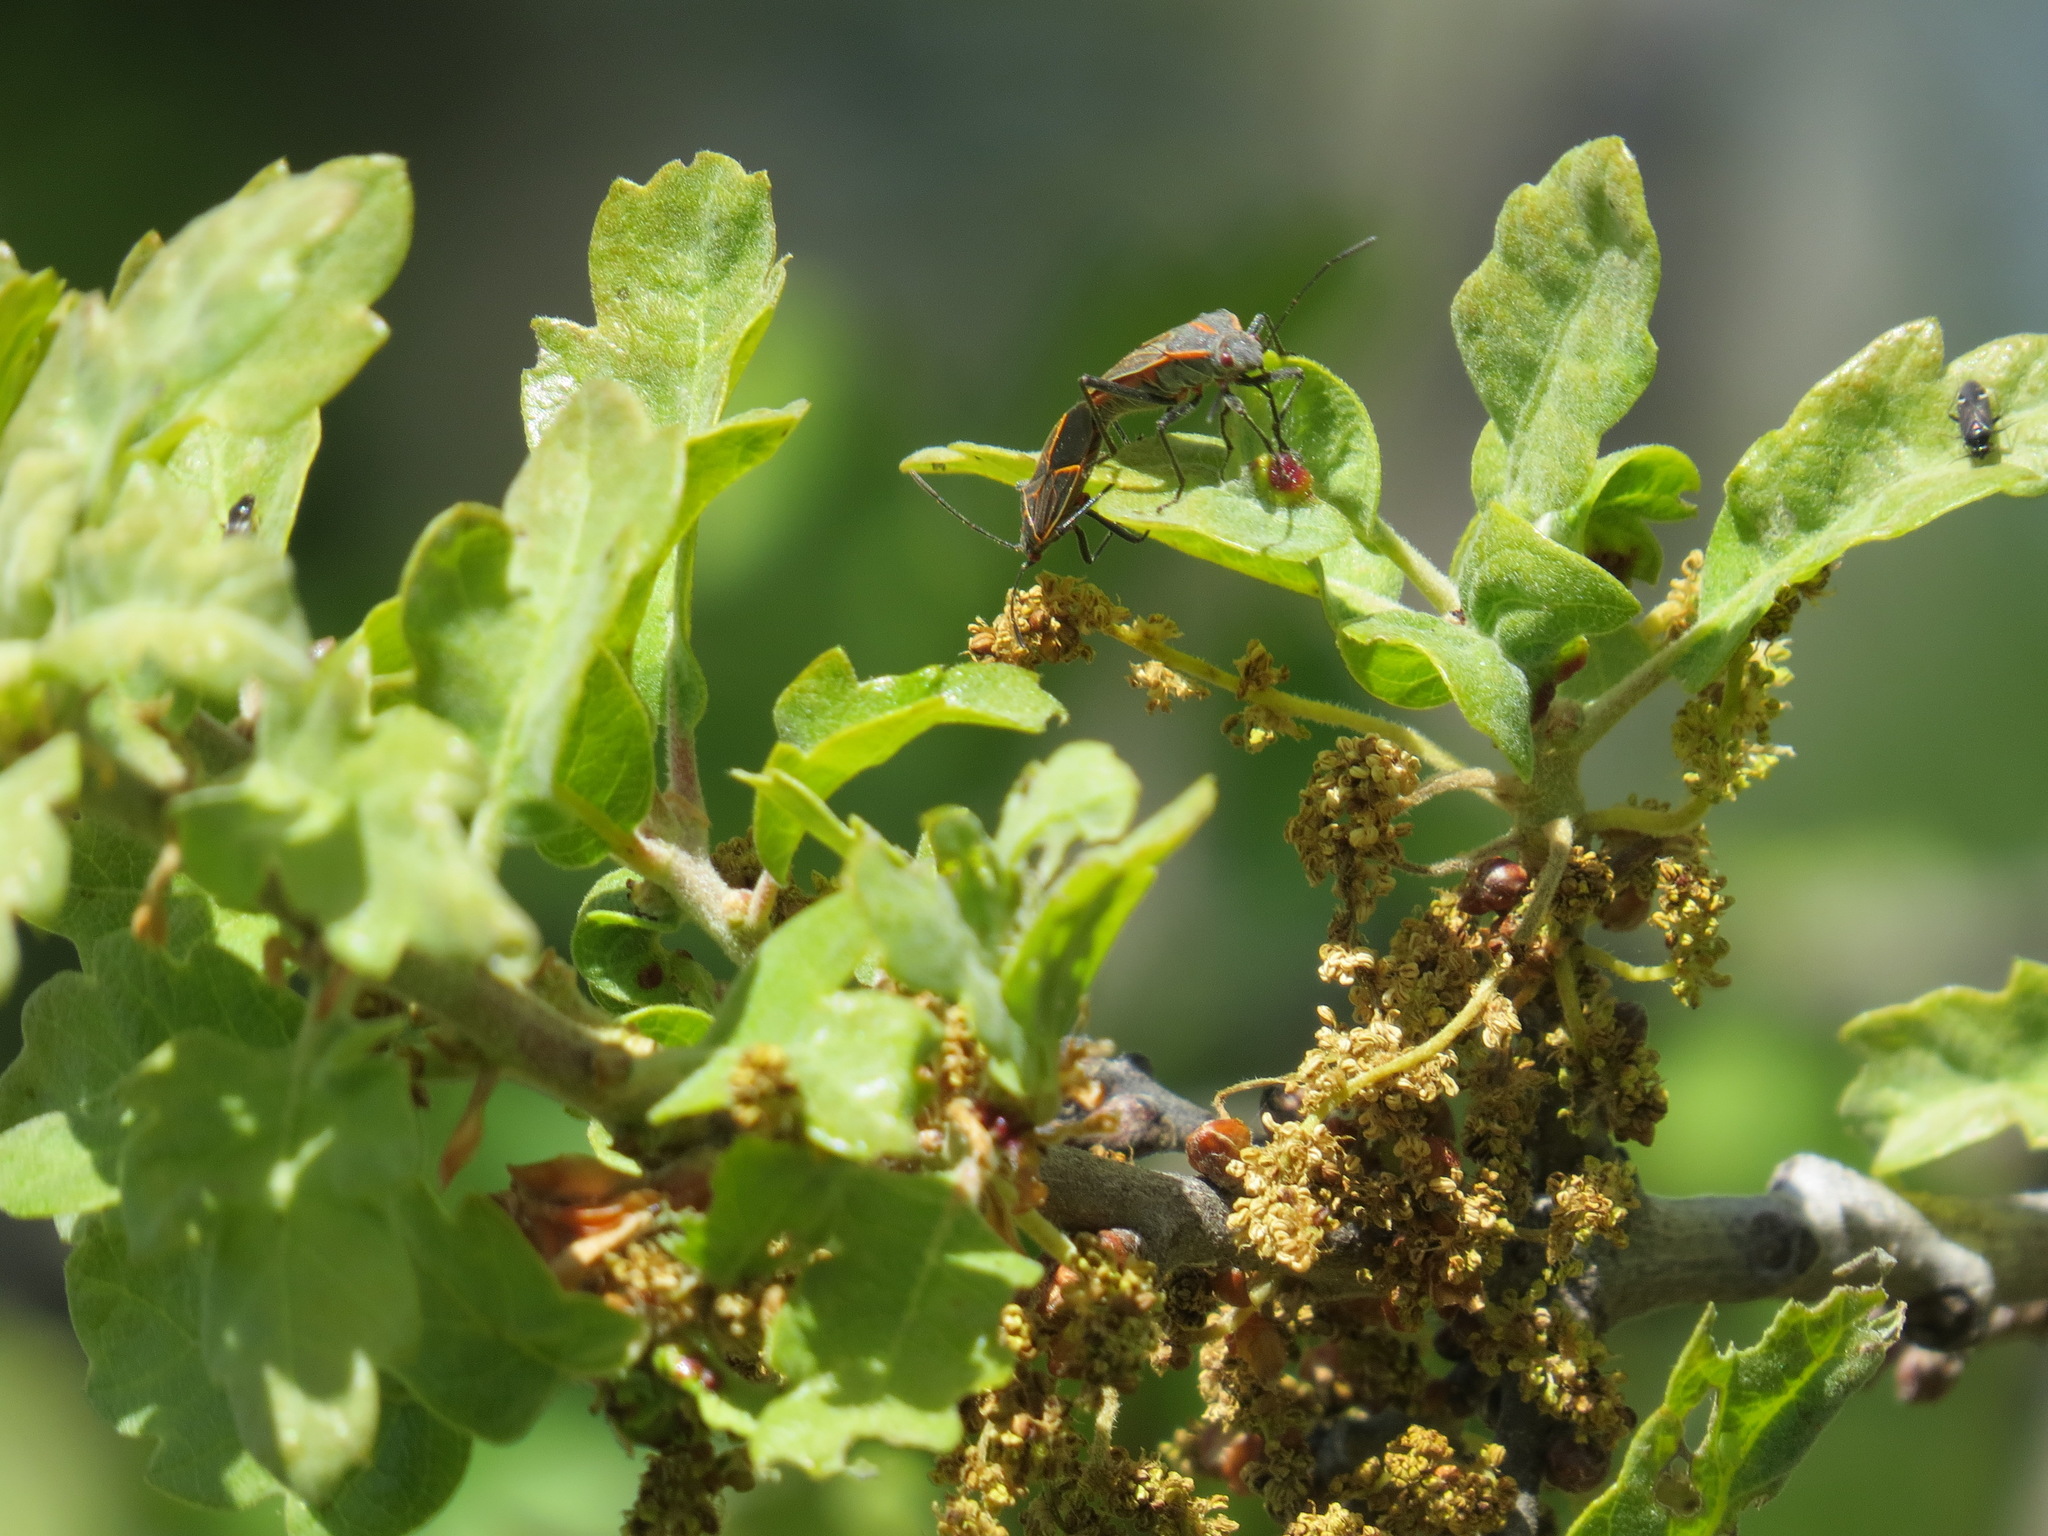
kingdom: Animalia
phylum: Arthropoda
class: Insecta
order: Hemiptera
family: Rhopalidae
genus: Boisea
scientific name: Boisea rubrolineata
